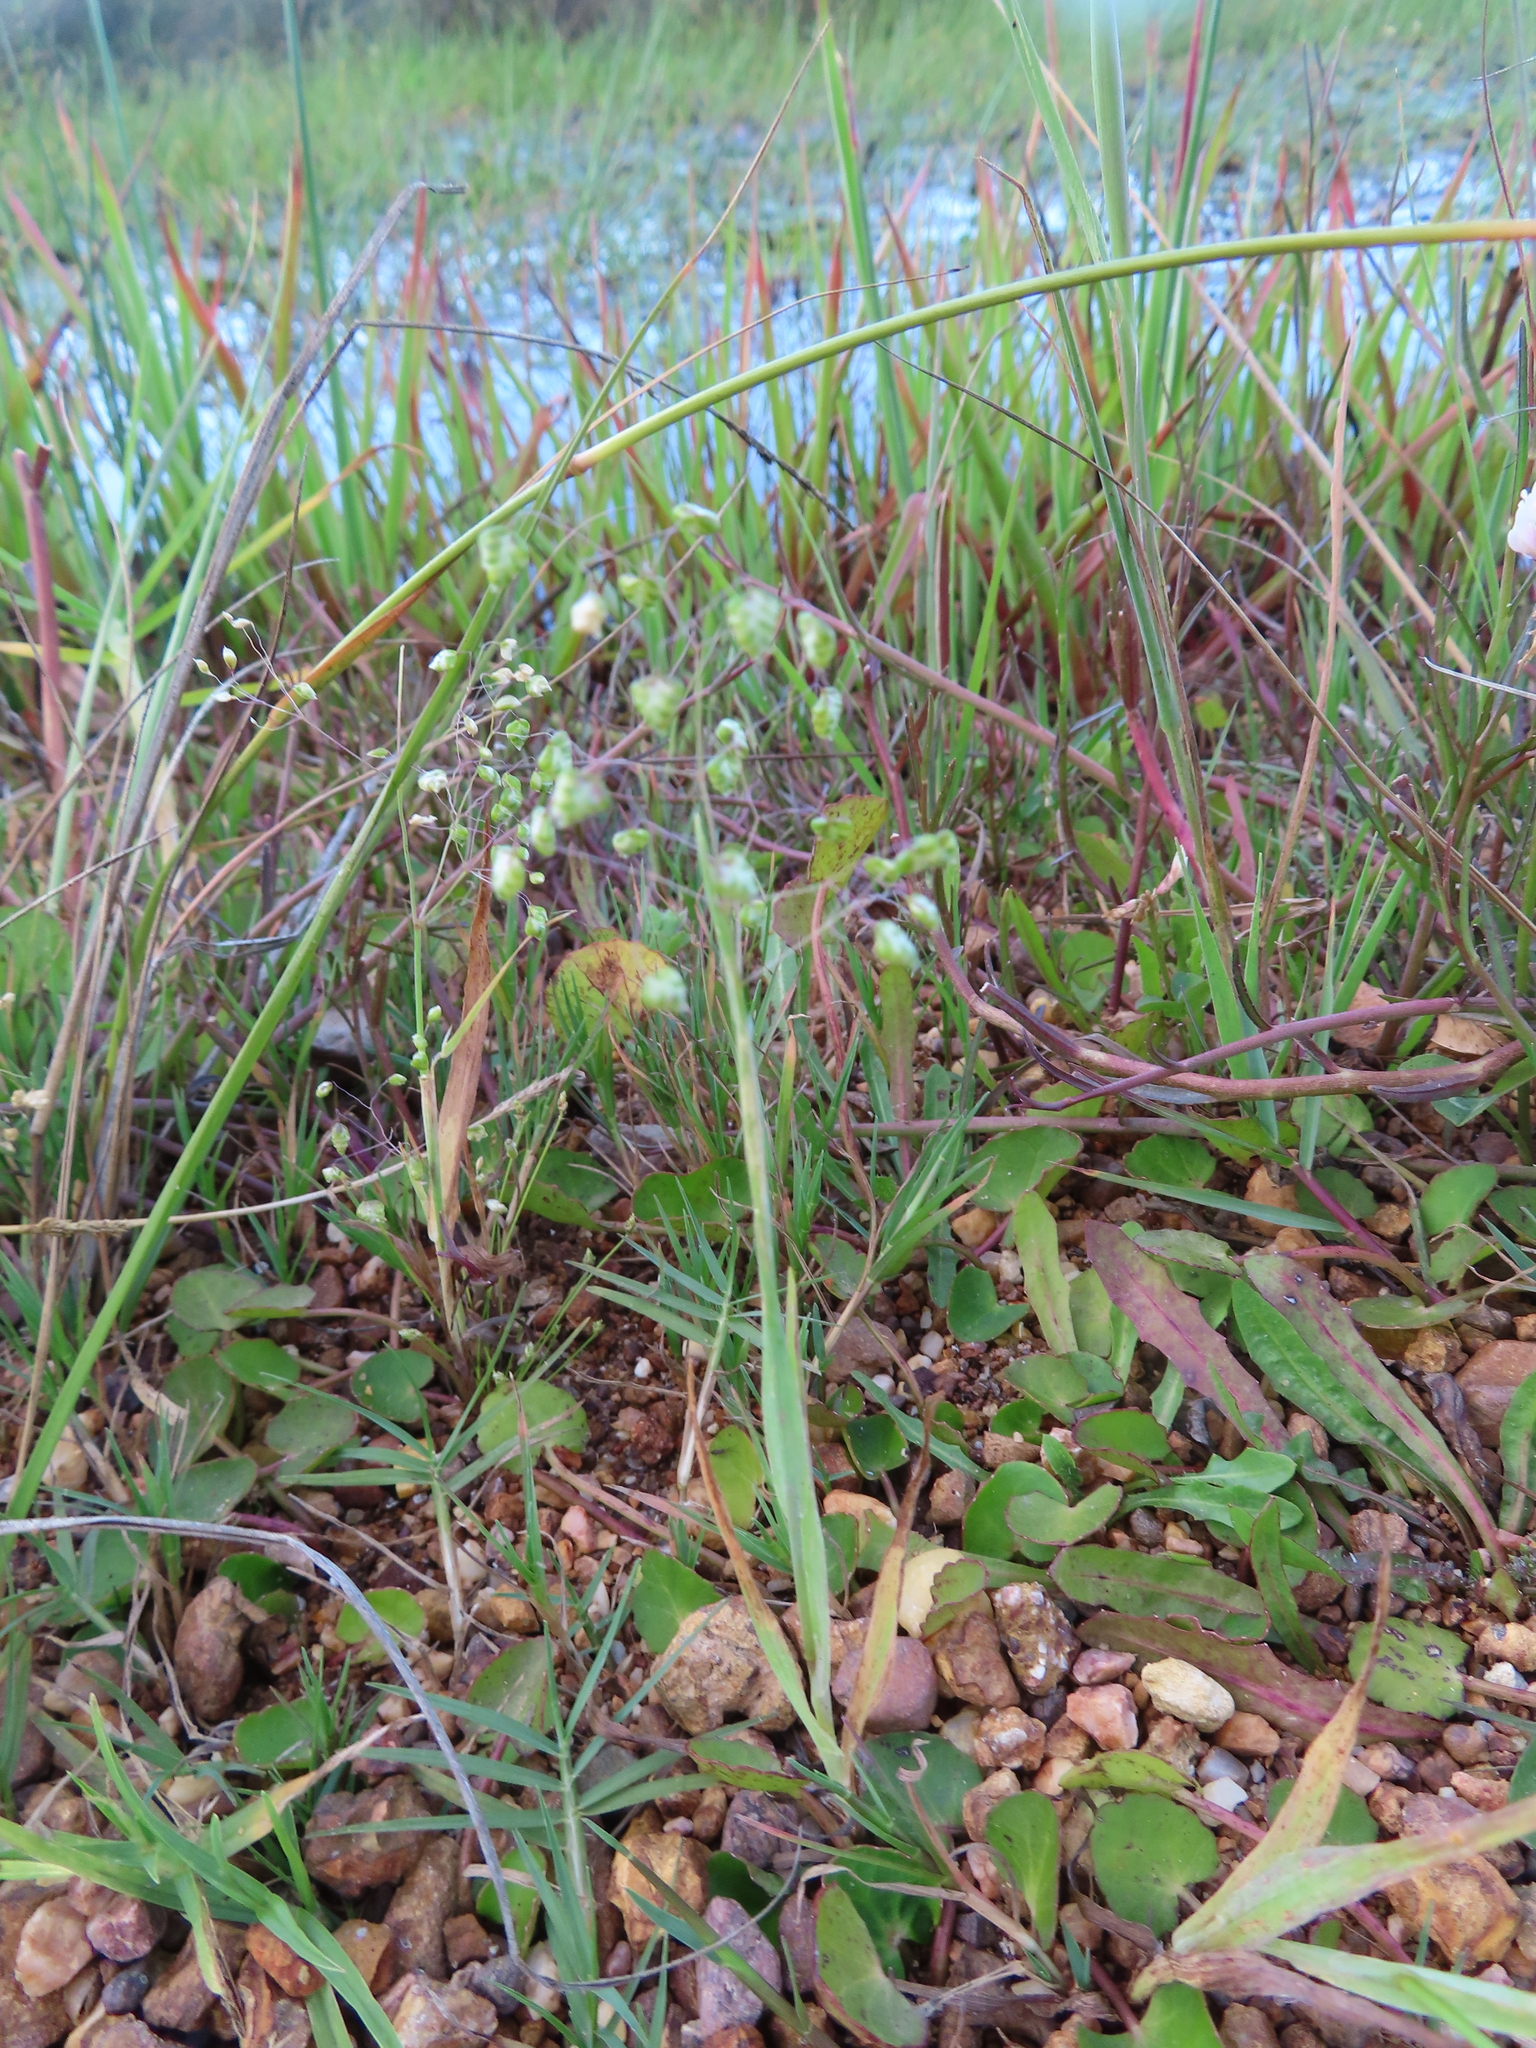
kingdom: Plantae
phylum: Tracheophyta
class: Liliopsida
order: Poales
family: Poaceae
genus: Briza
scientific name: Briza minor
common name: Lesser quaking-grass
